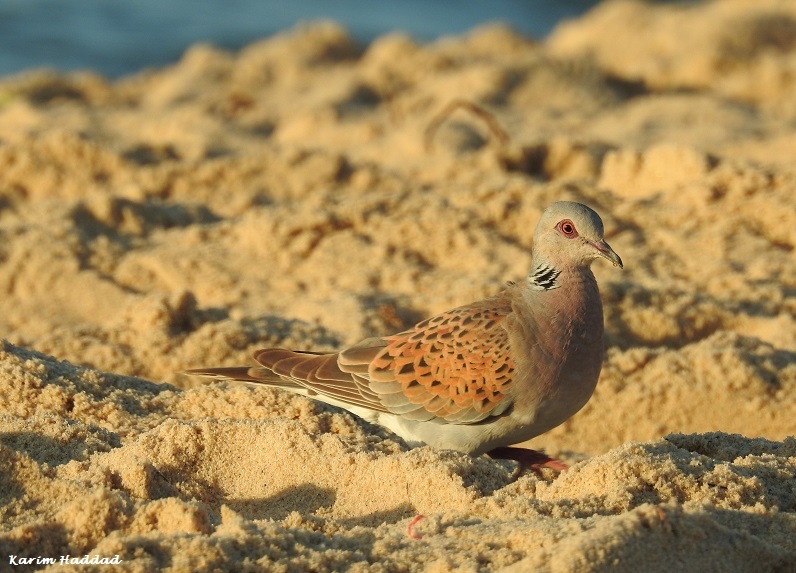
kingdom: Animalia
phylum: Chordata
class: Aves
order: Columbiformes
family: Columbidae
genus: Streptopelia
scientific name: Streptopelia turtur
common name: European turtle dove
